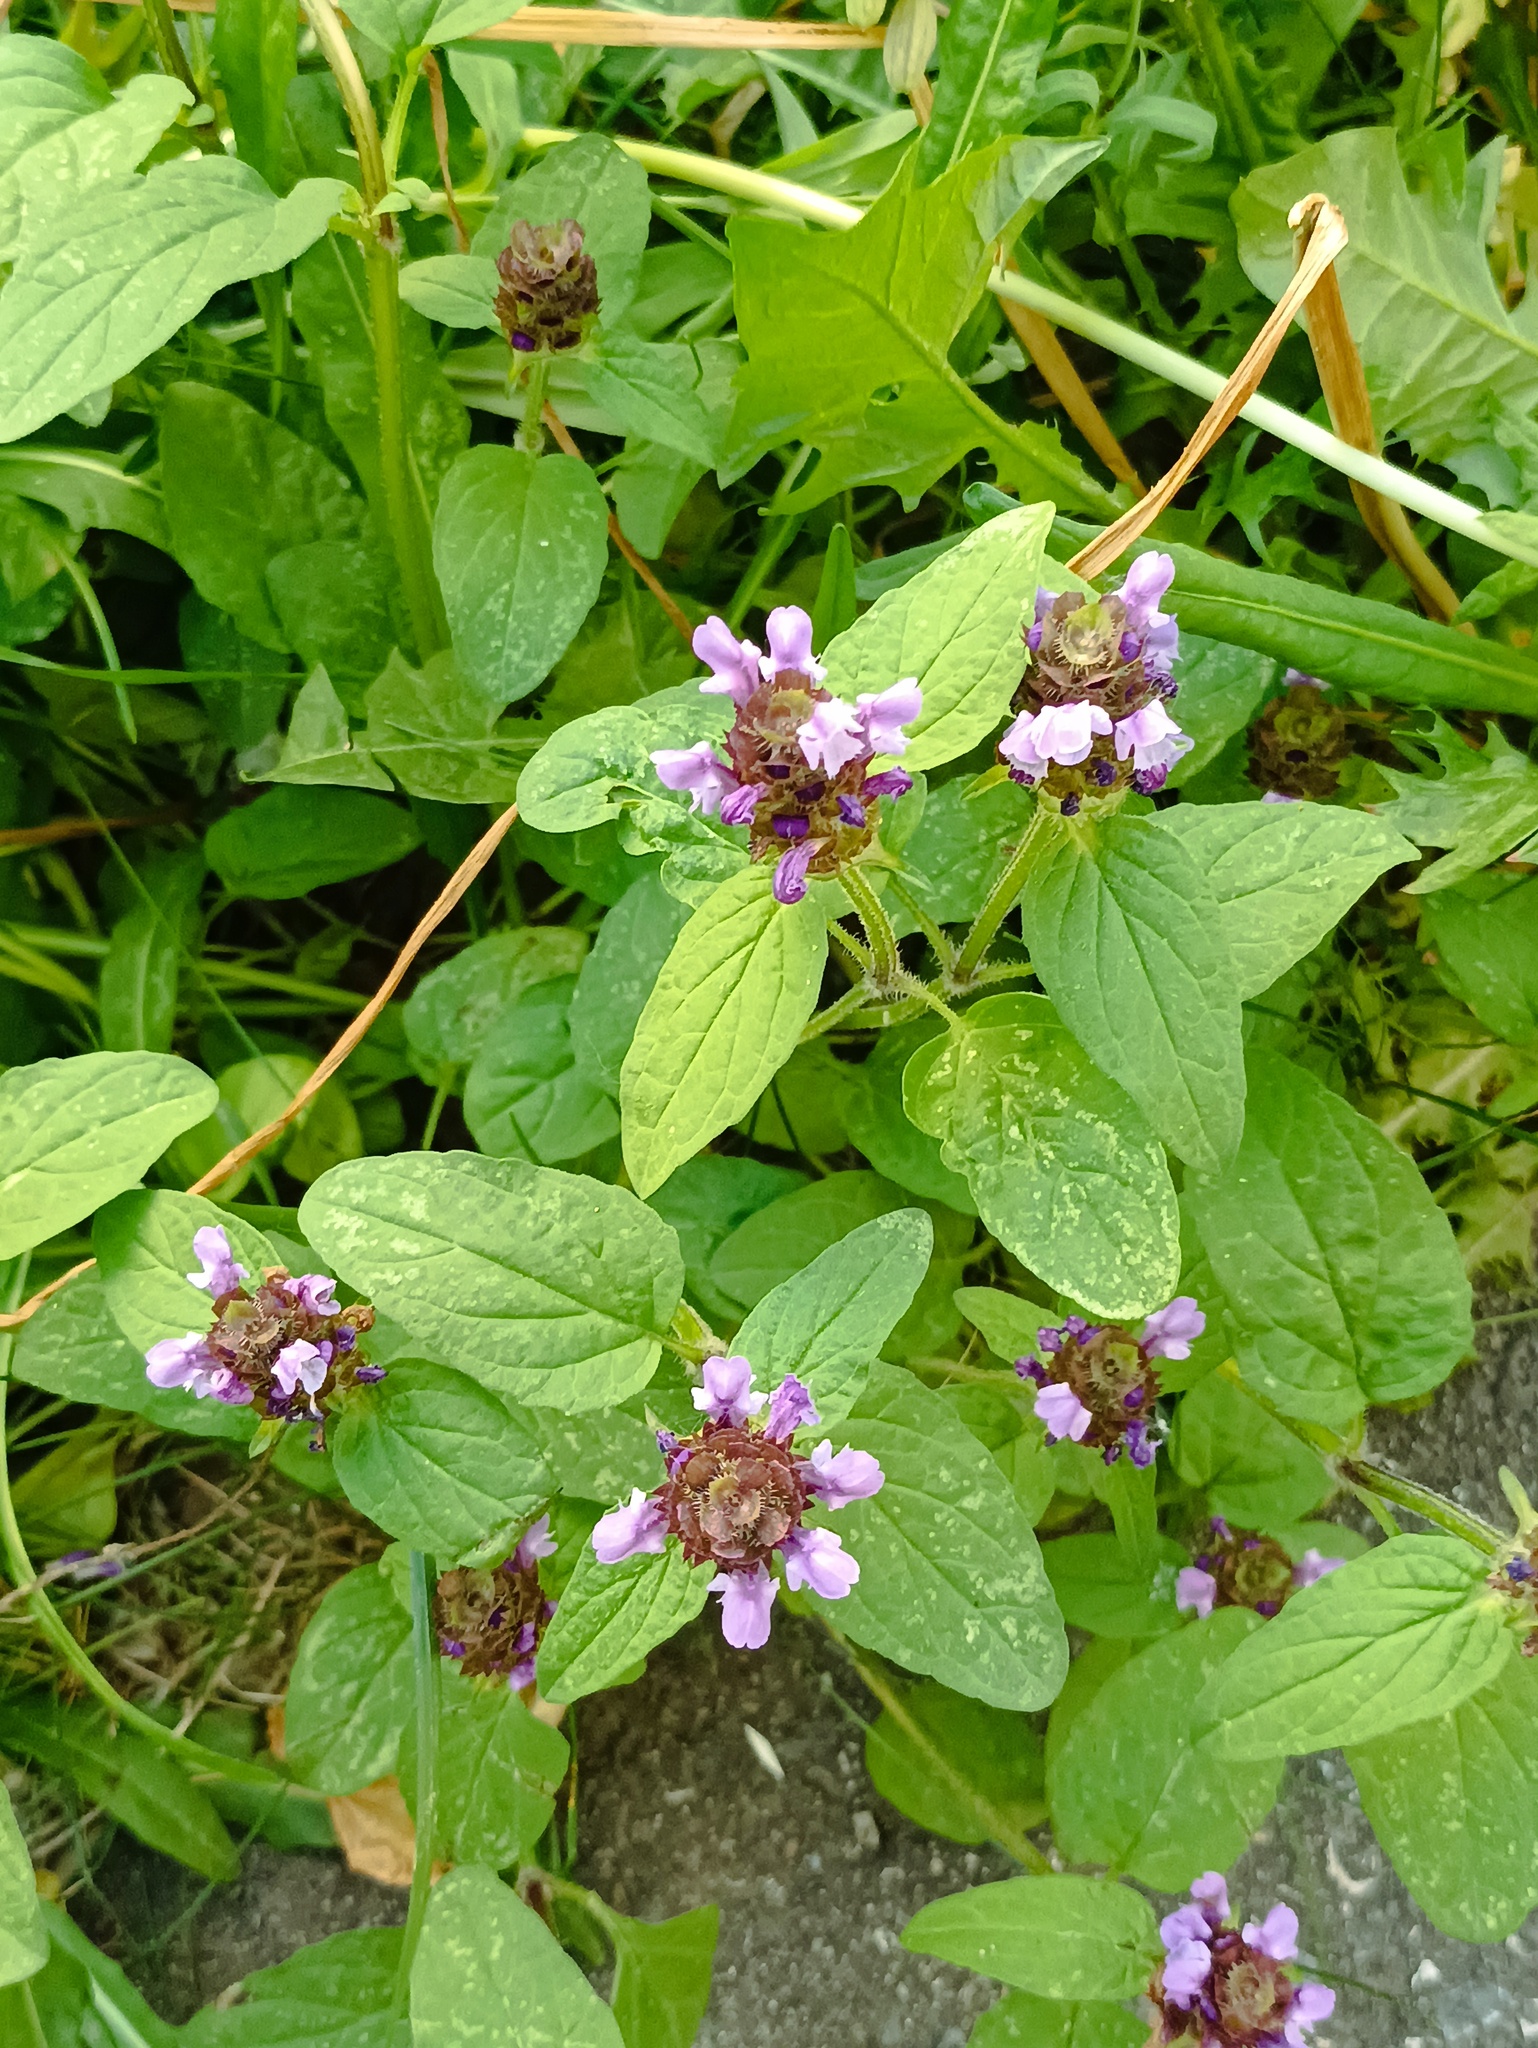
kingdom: Plantae
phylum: Tracheophyta
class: Magnoliopsida
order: Lamiales
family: Lamiaceae
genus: Prunella
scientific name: Prunella vulgaris
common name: Heal-all
